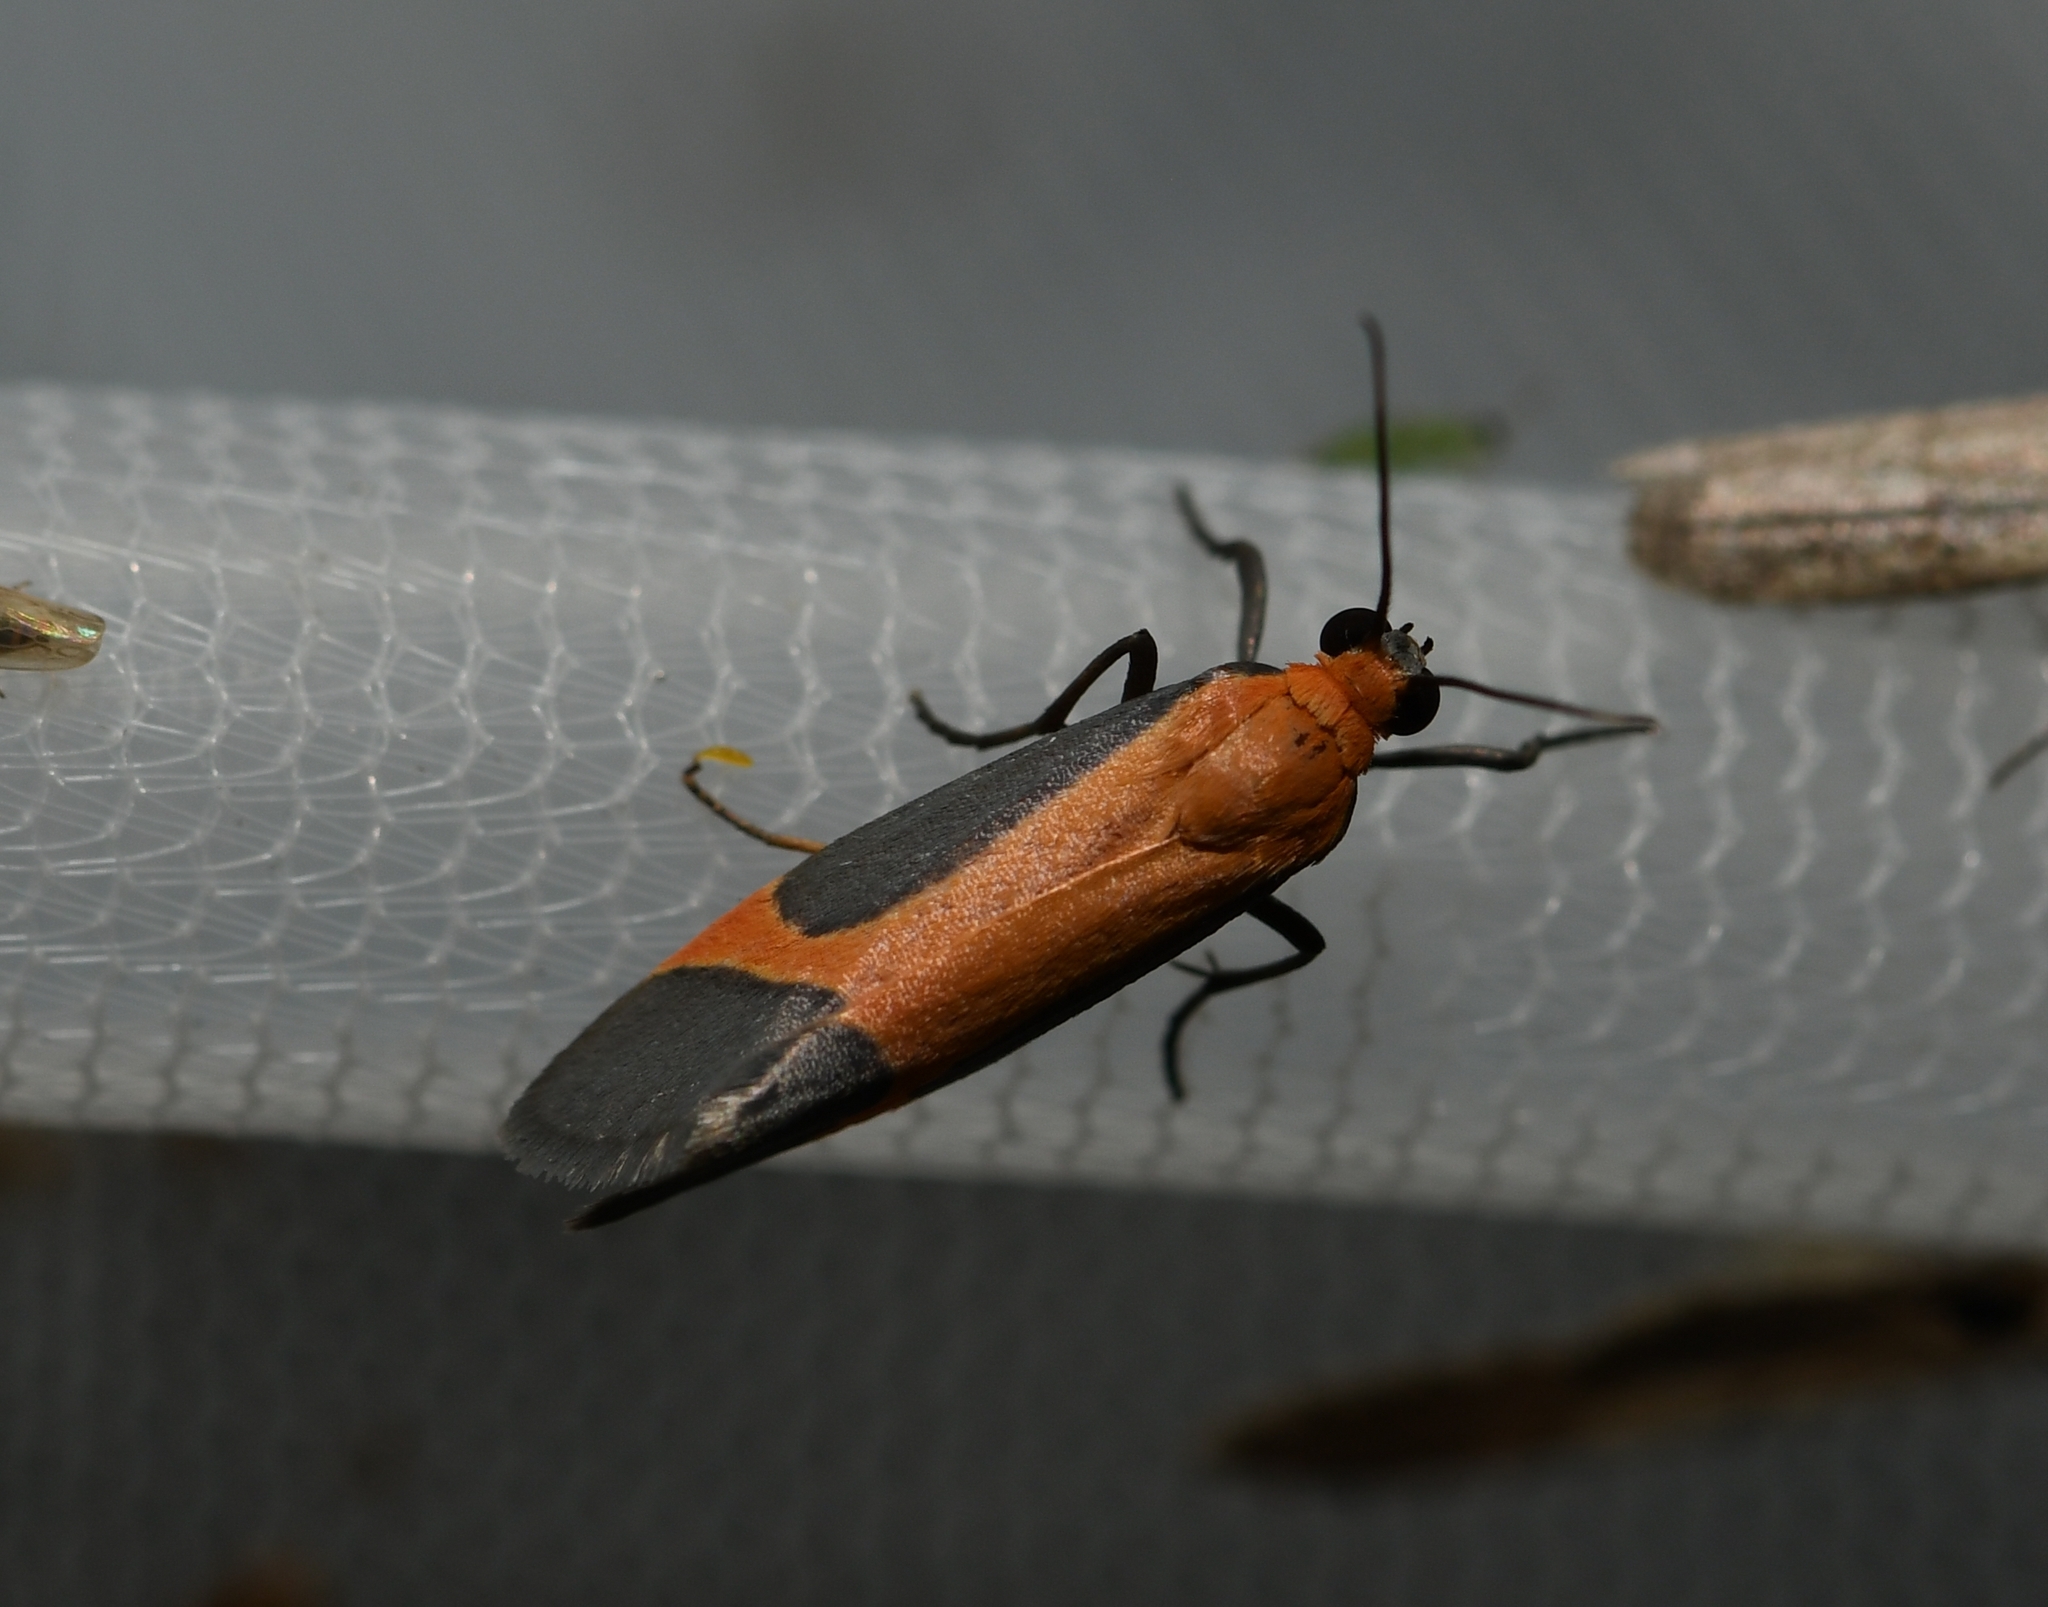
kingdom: Animalia
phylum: Arthropoda
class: Insecta
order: Lepidoptera
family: Erebidae
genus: Cisthene
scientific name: Cisthene angelus
